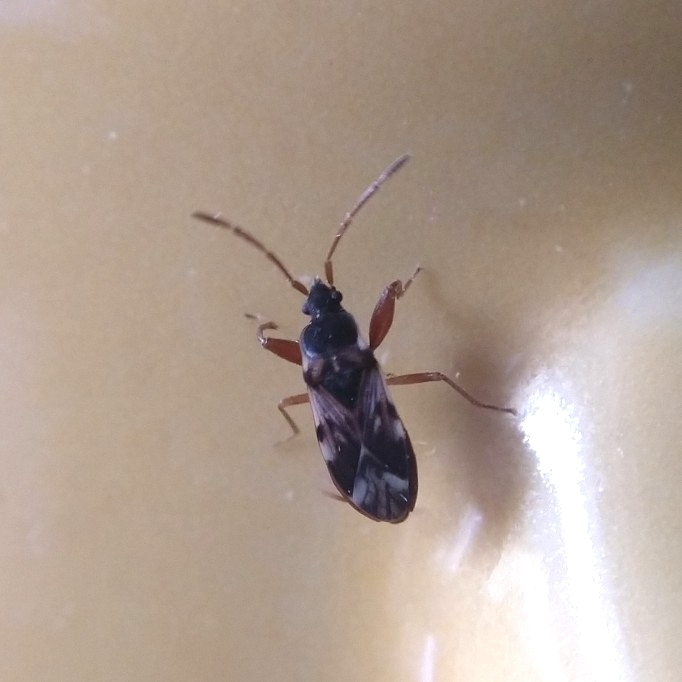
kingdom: Animalia
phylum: Arthropoda
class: Insecta
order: Hemiptera
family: Rhyparochromidae
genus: Scolopostethus
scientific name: Scolopostethus pictus
